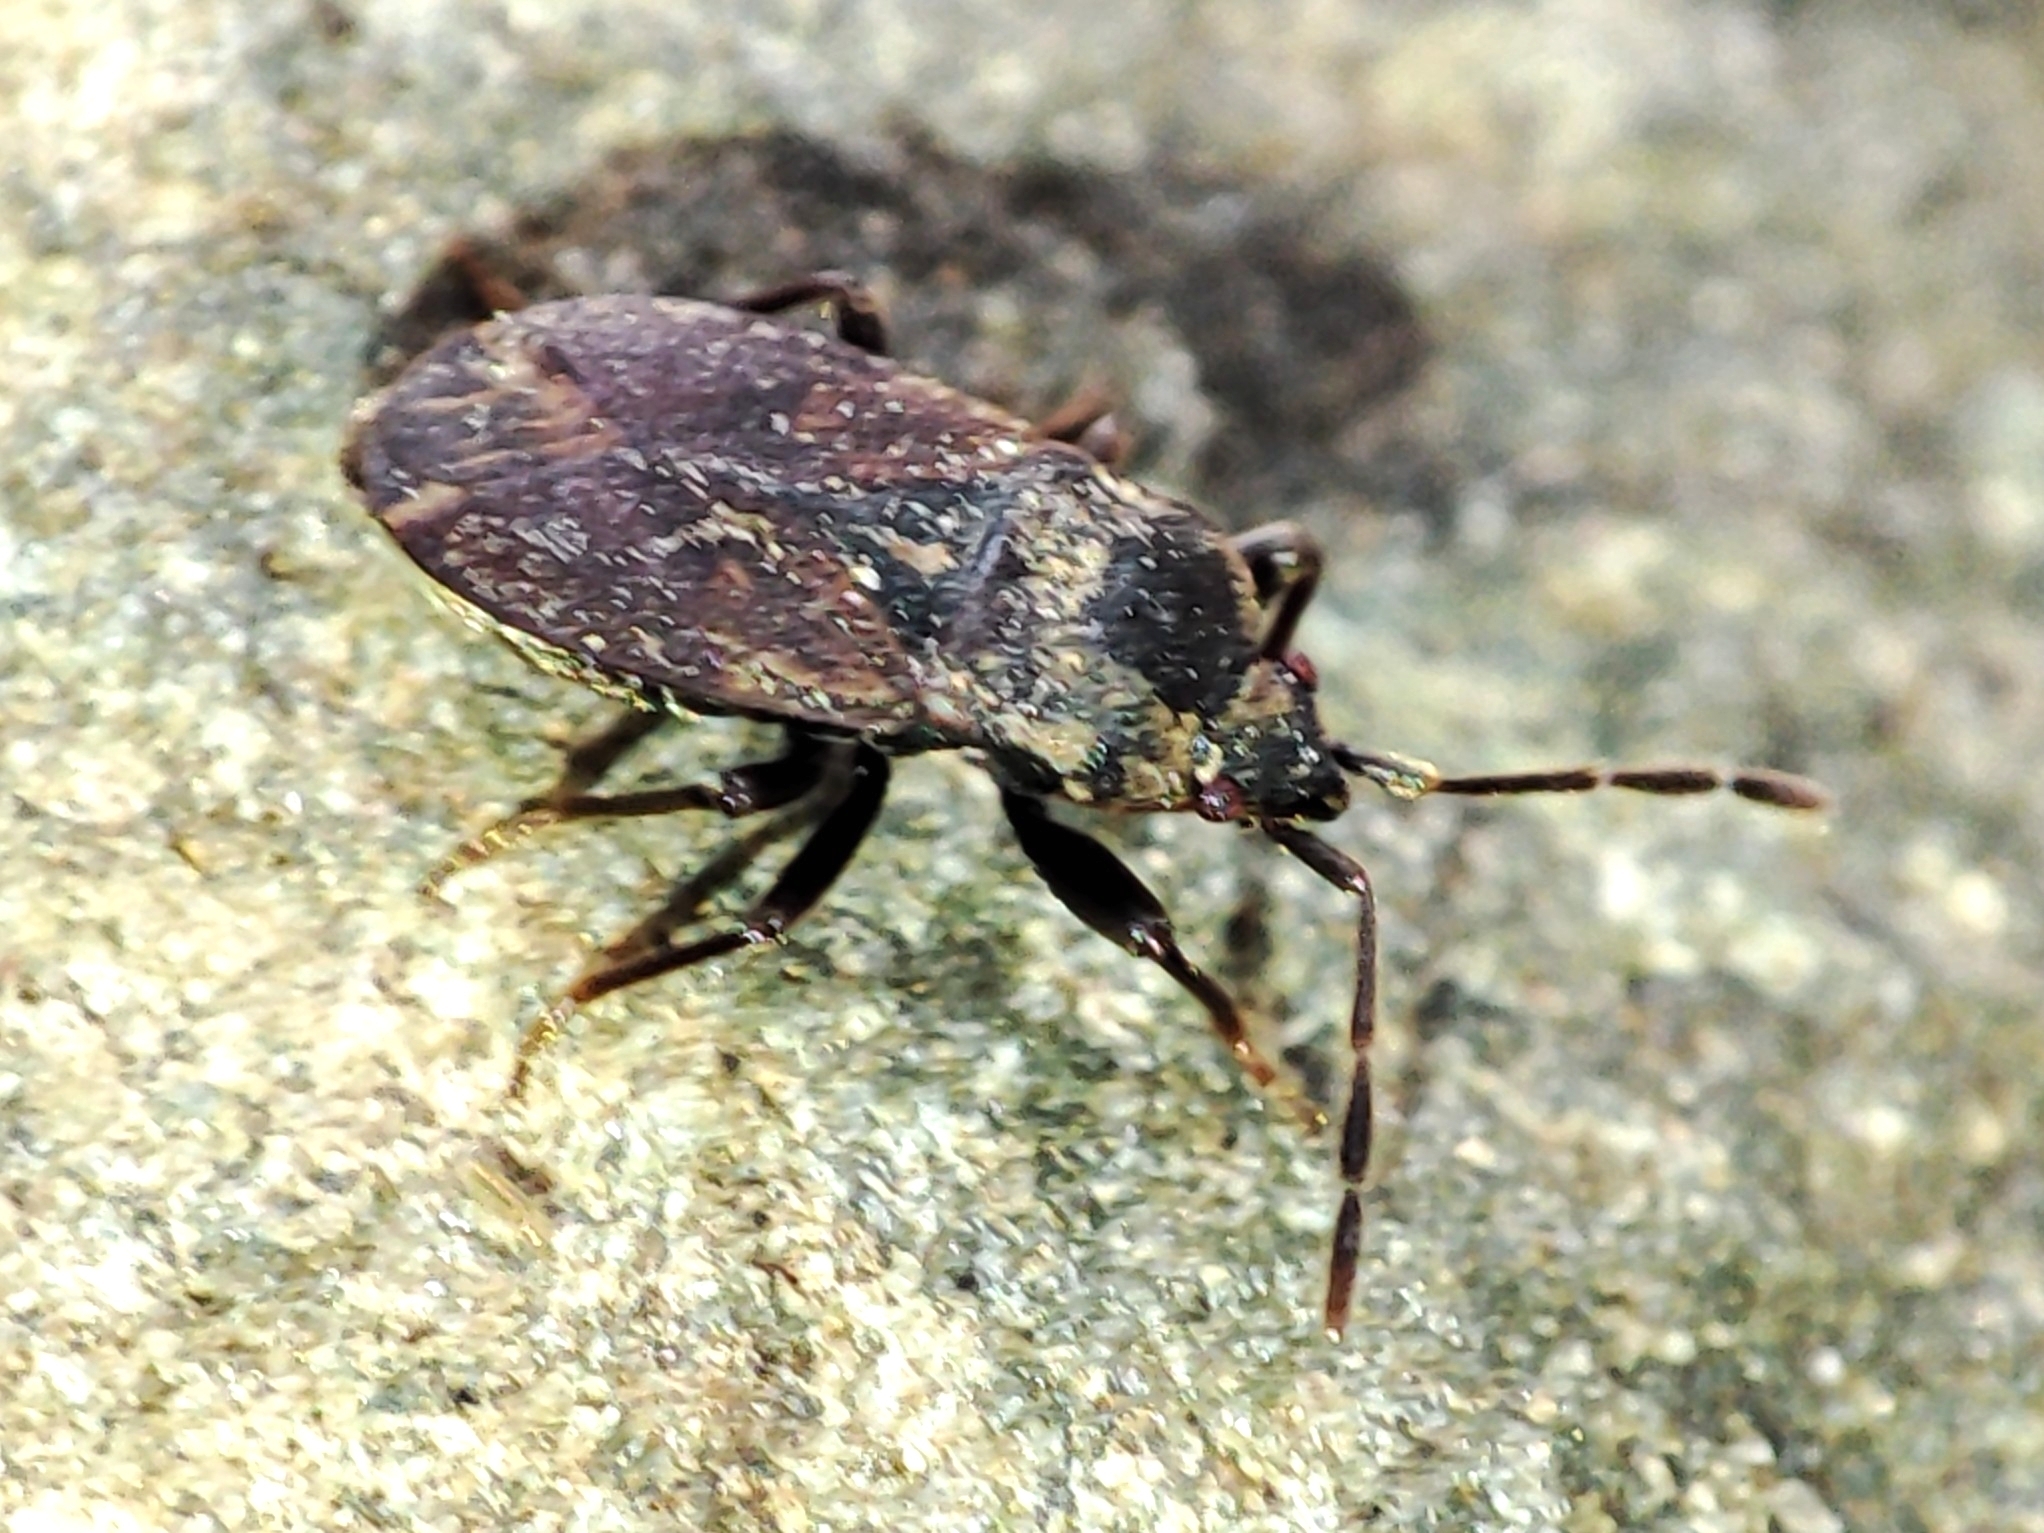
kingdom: Animalia
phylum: Arthropoda
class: Insecta
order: Hemiptera
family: Rhyparochromidae
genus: Drymus
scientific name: Drymus brunneus
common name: Seed bug
